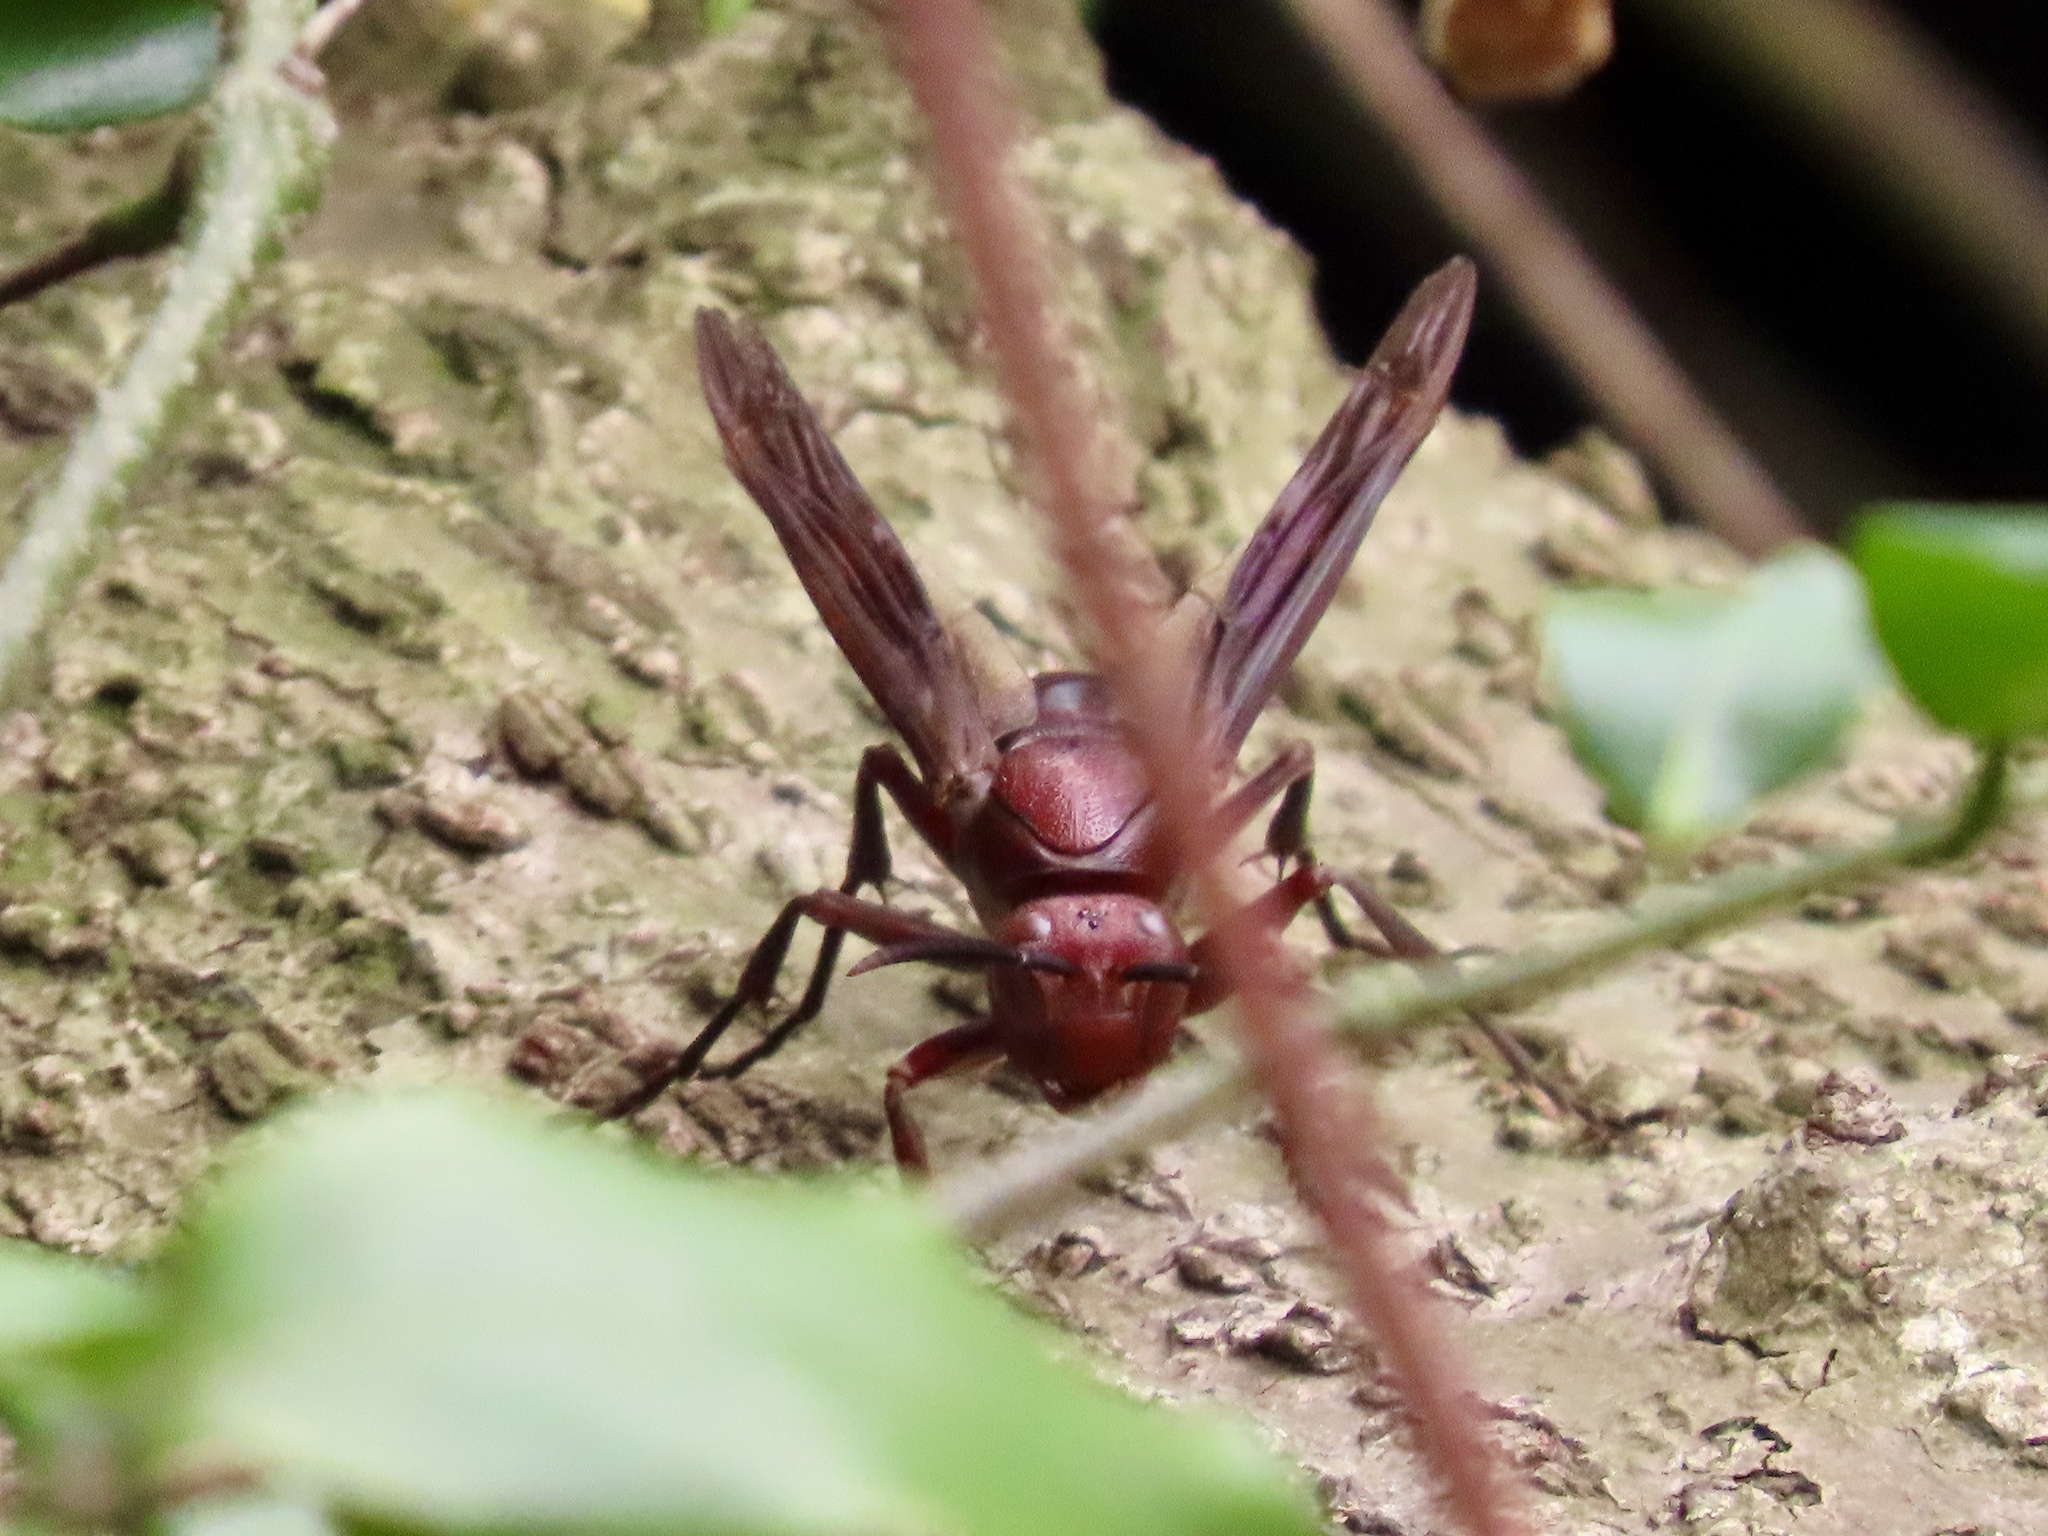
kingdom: Animalia
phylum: Arthropoda
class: Insecta
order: Hymenoptera
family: Eumenidae
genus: Polistes
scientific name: Polistes gigas
